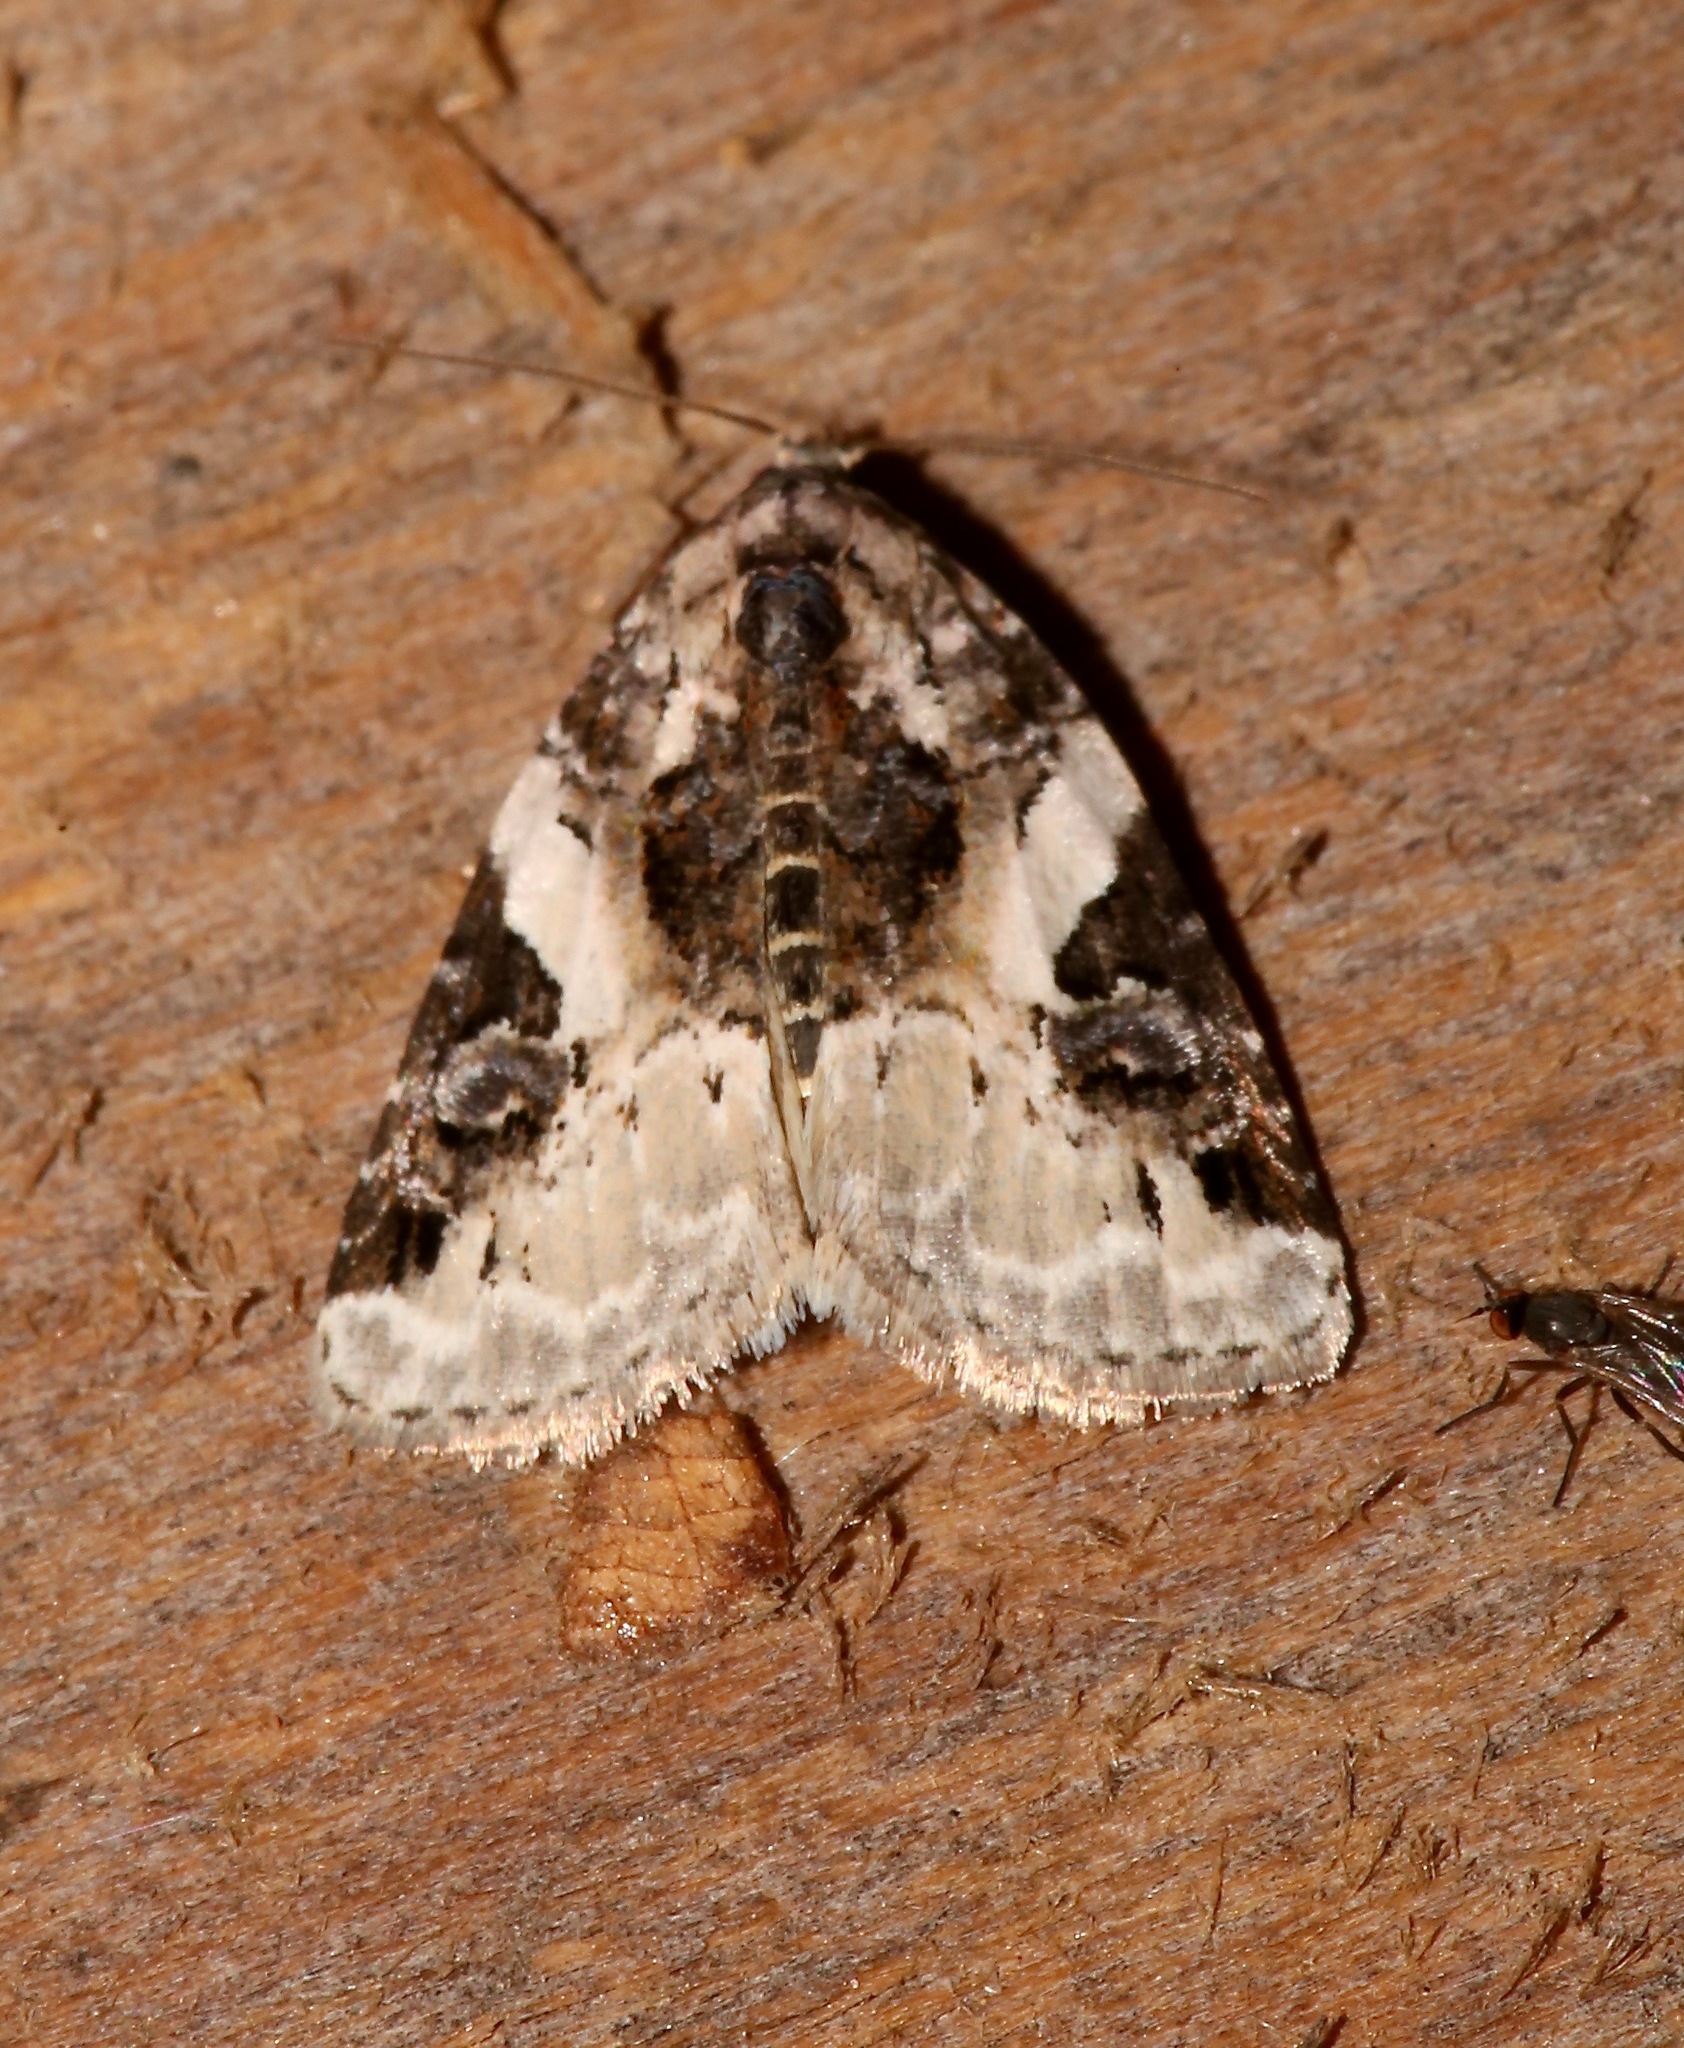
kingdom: Animalia
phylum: Arthropoda
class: Insecta
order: Lepidoptera
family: Noctuidae
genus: Pseudeustrotia
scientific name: Pseudeustrotia carneola
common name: Pink-barred lithacodia moth
